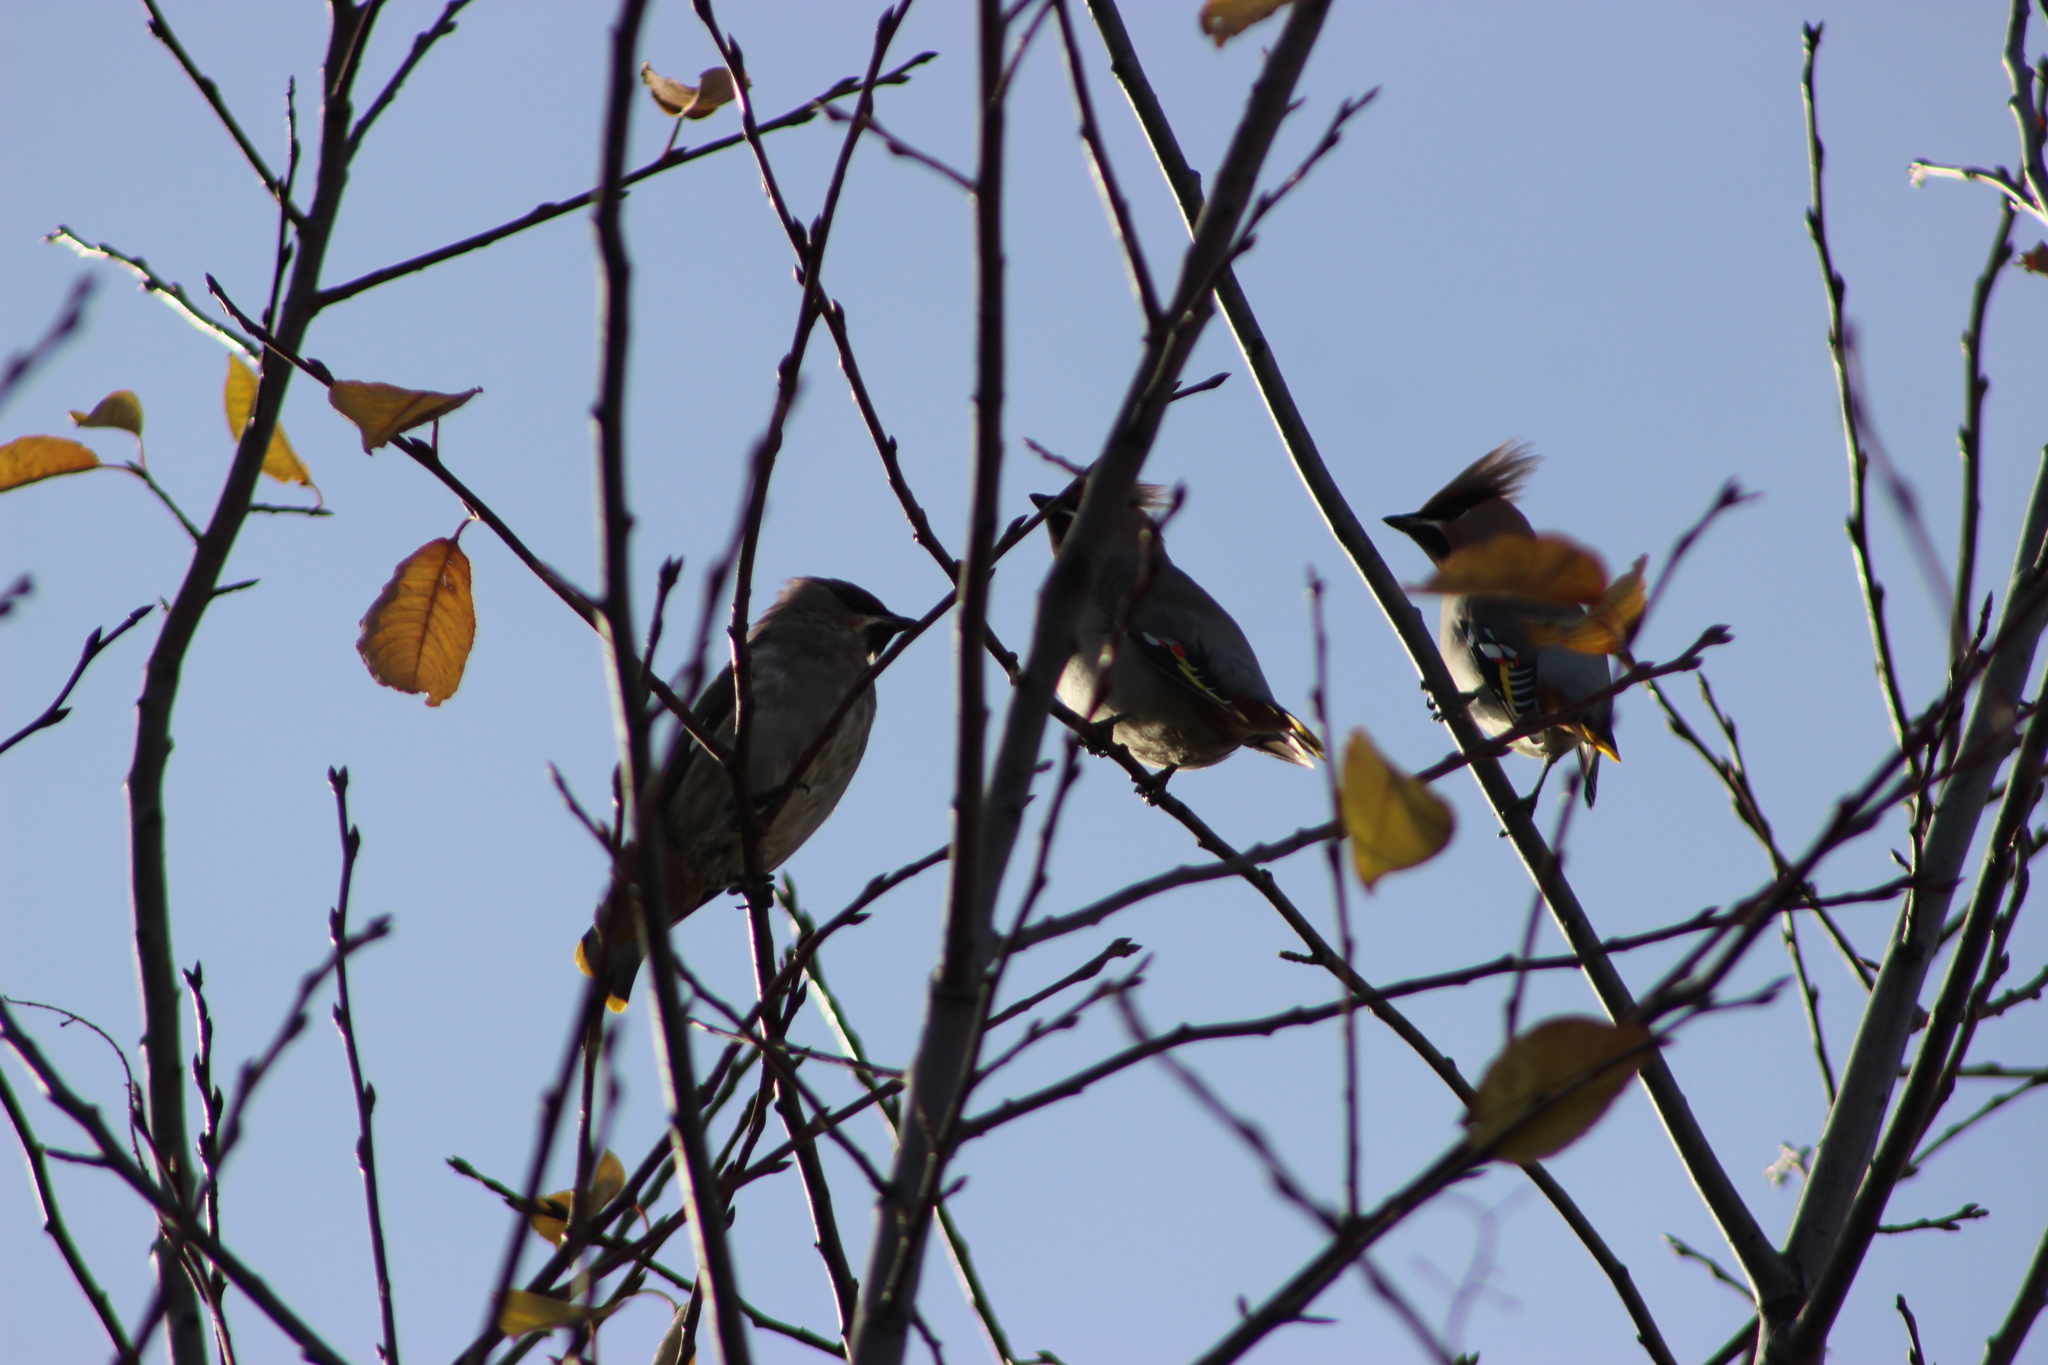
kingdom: Animalia
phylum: Chordata
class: Aves
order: Passeriformes
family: Bombycillidae
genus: Bombycilla
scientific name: Bombycilla garrulus
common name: Bohemian waxwing
